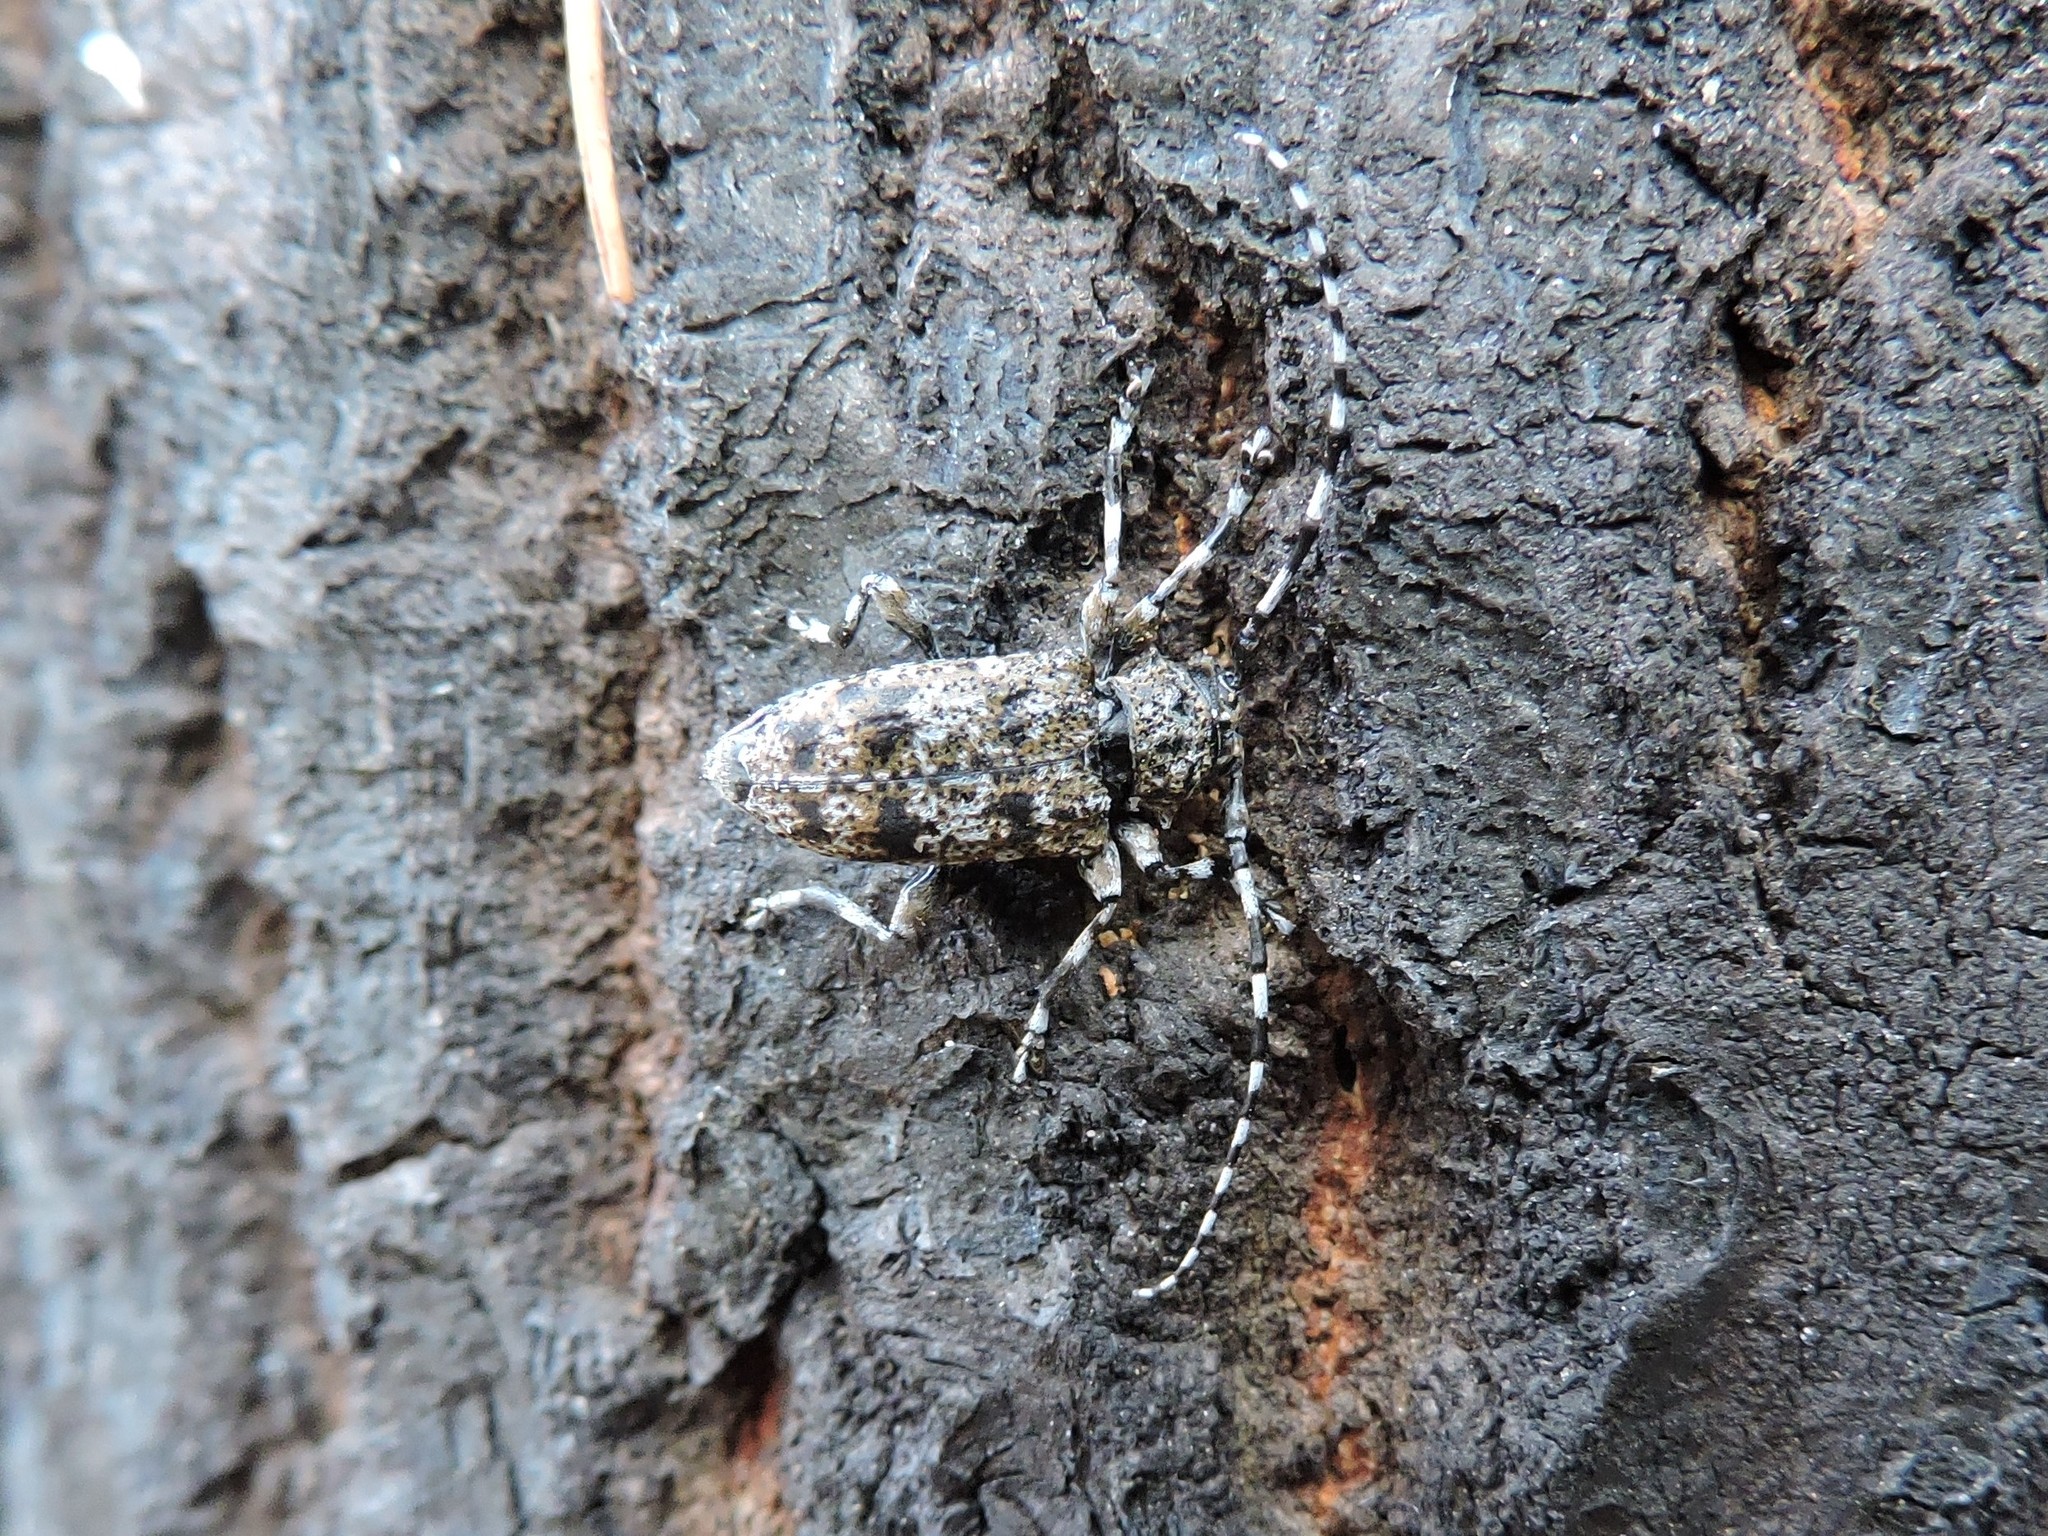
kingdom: Animalia
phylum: Arthropoda
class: Insecta
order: Coleoptera
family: Cerambycidae
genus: Aegomorphus
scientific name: Aegomorphus clavipes
